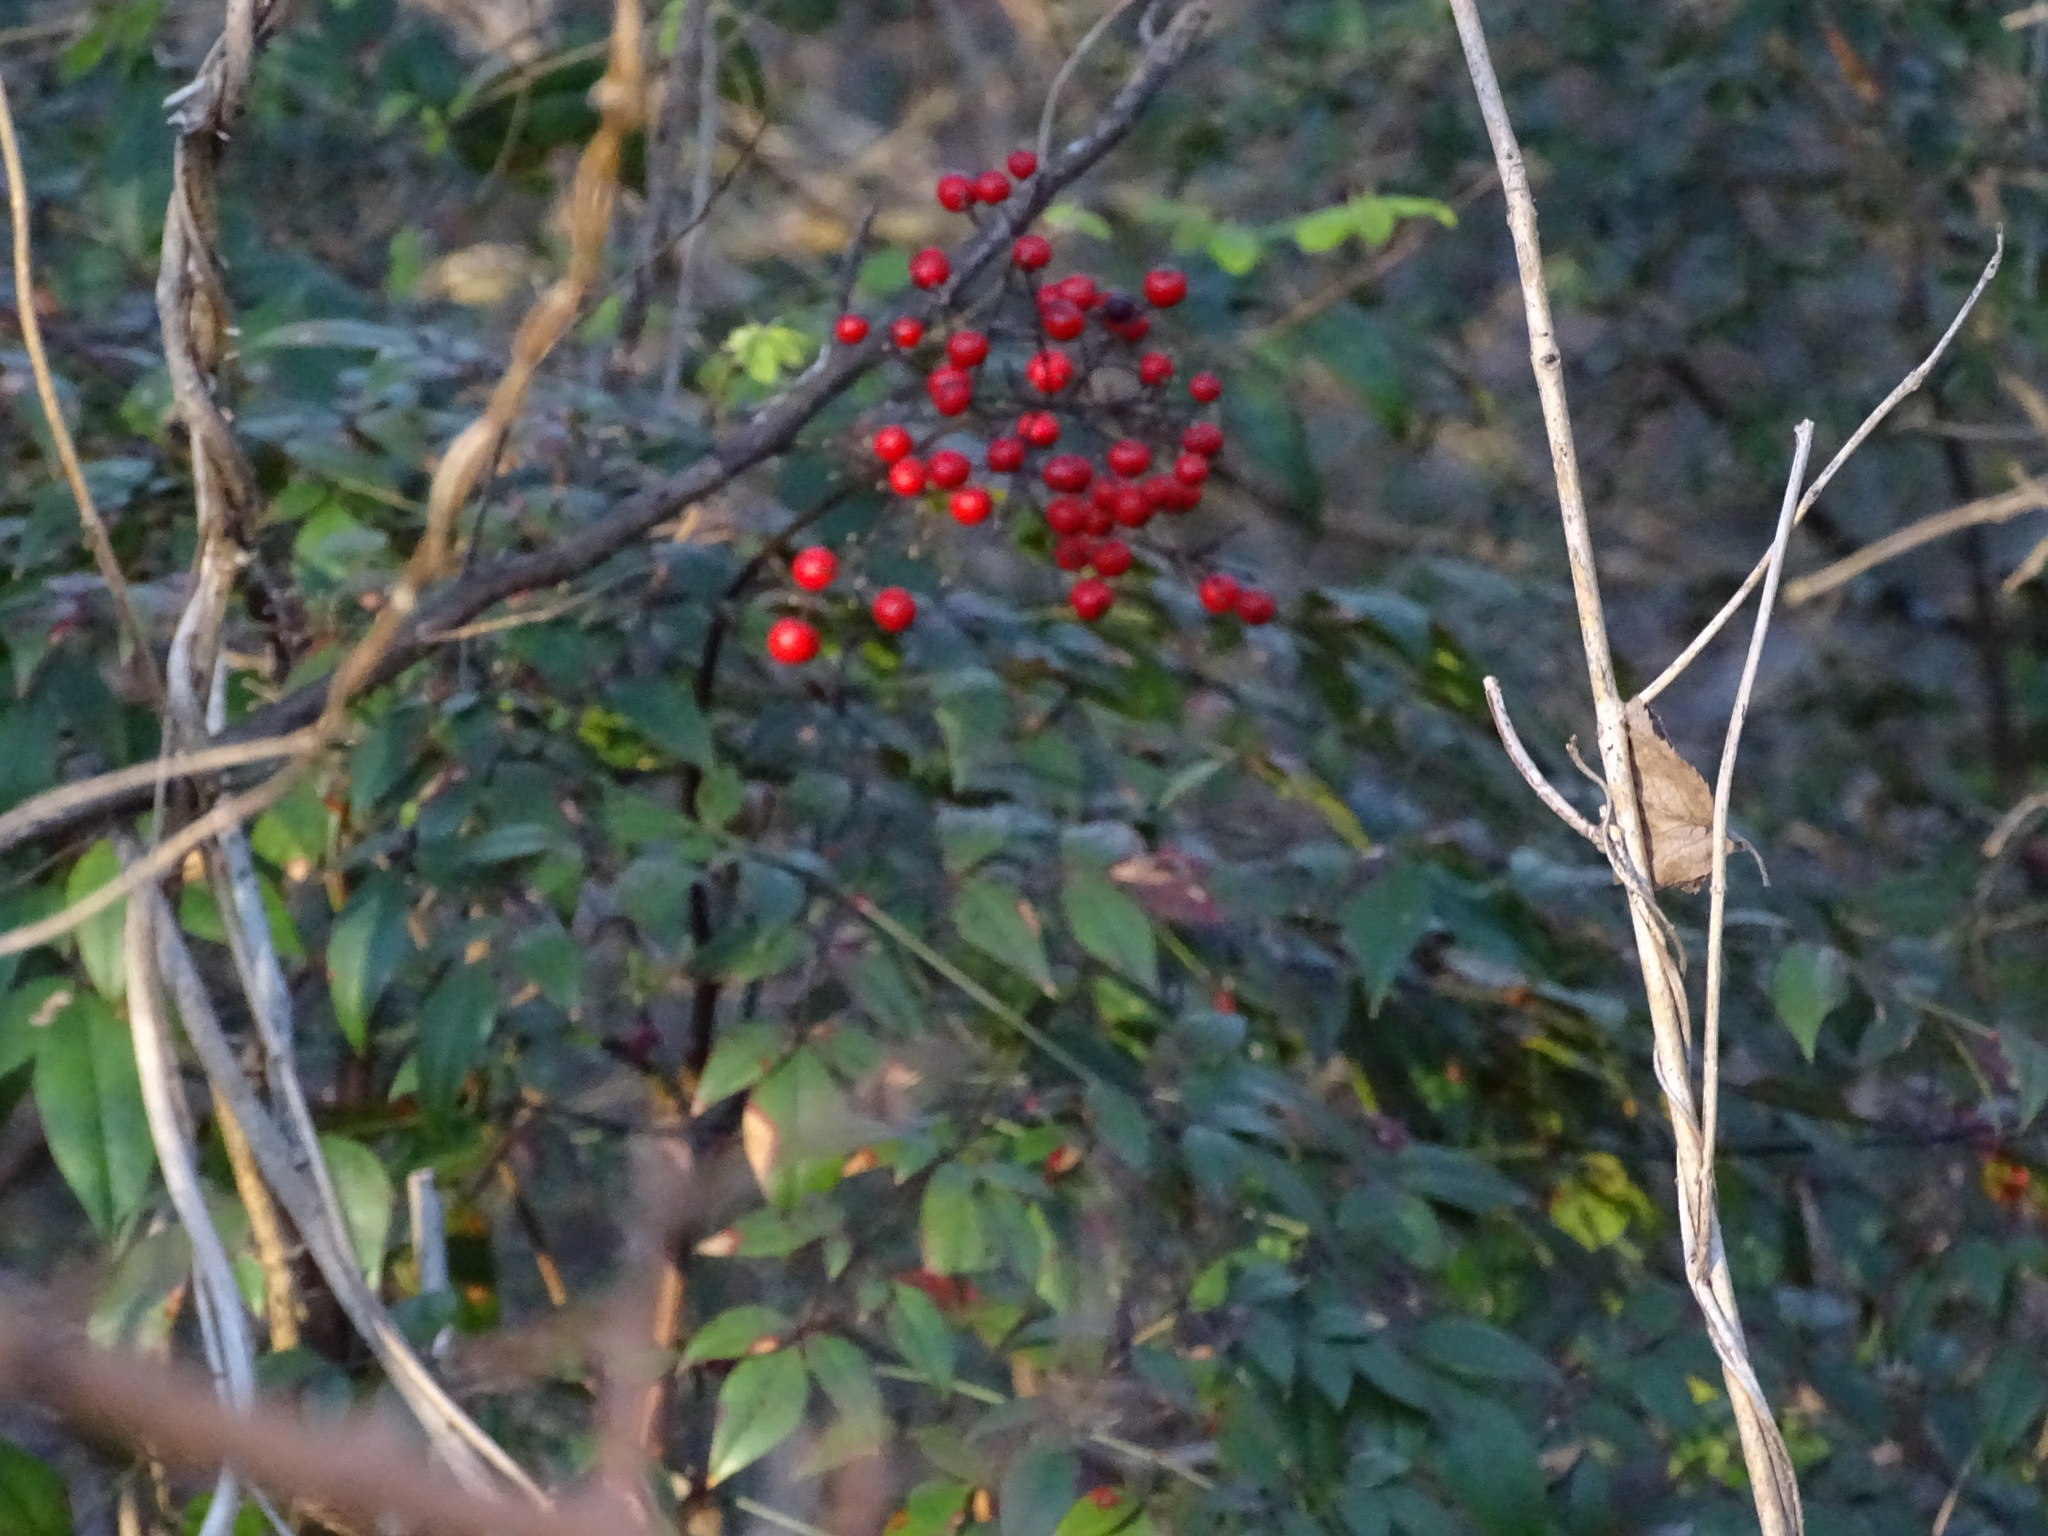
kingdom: Plantae
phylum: Tracheophyta
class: Magnoliopsida
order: Ranunculales
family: Berberidaceae
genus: Nandina
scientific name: Nandina domestica
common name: Sacred bamboo
